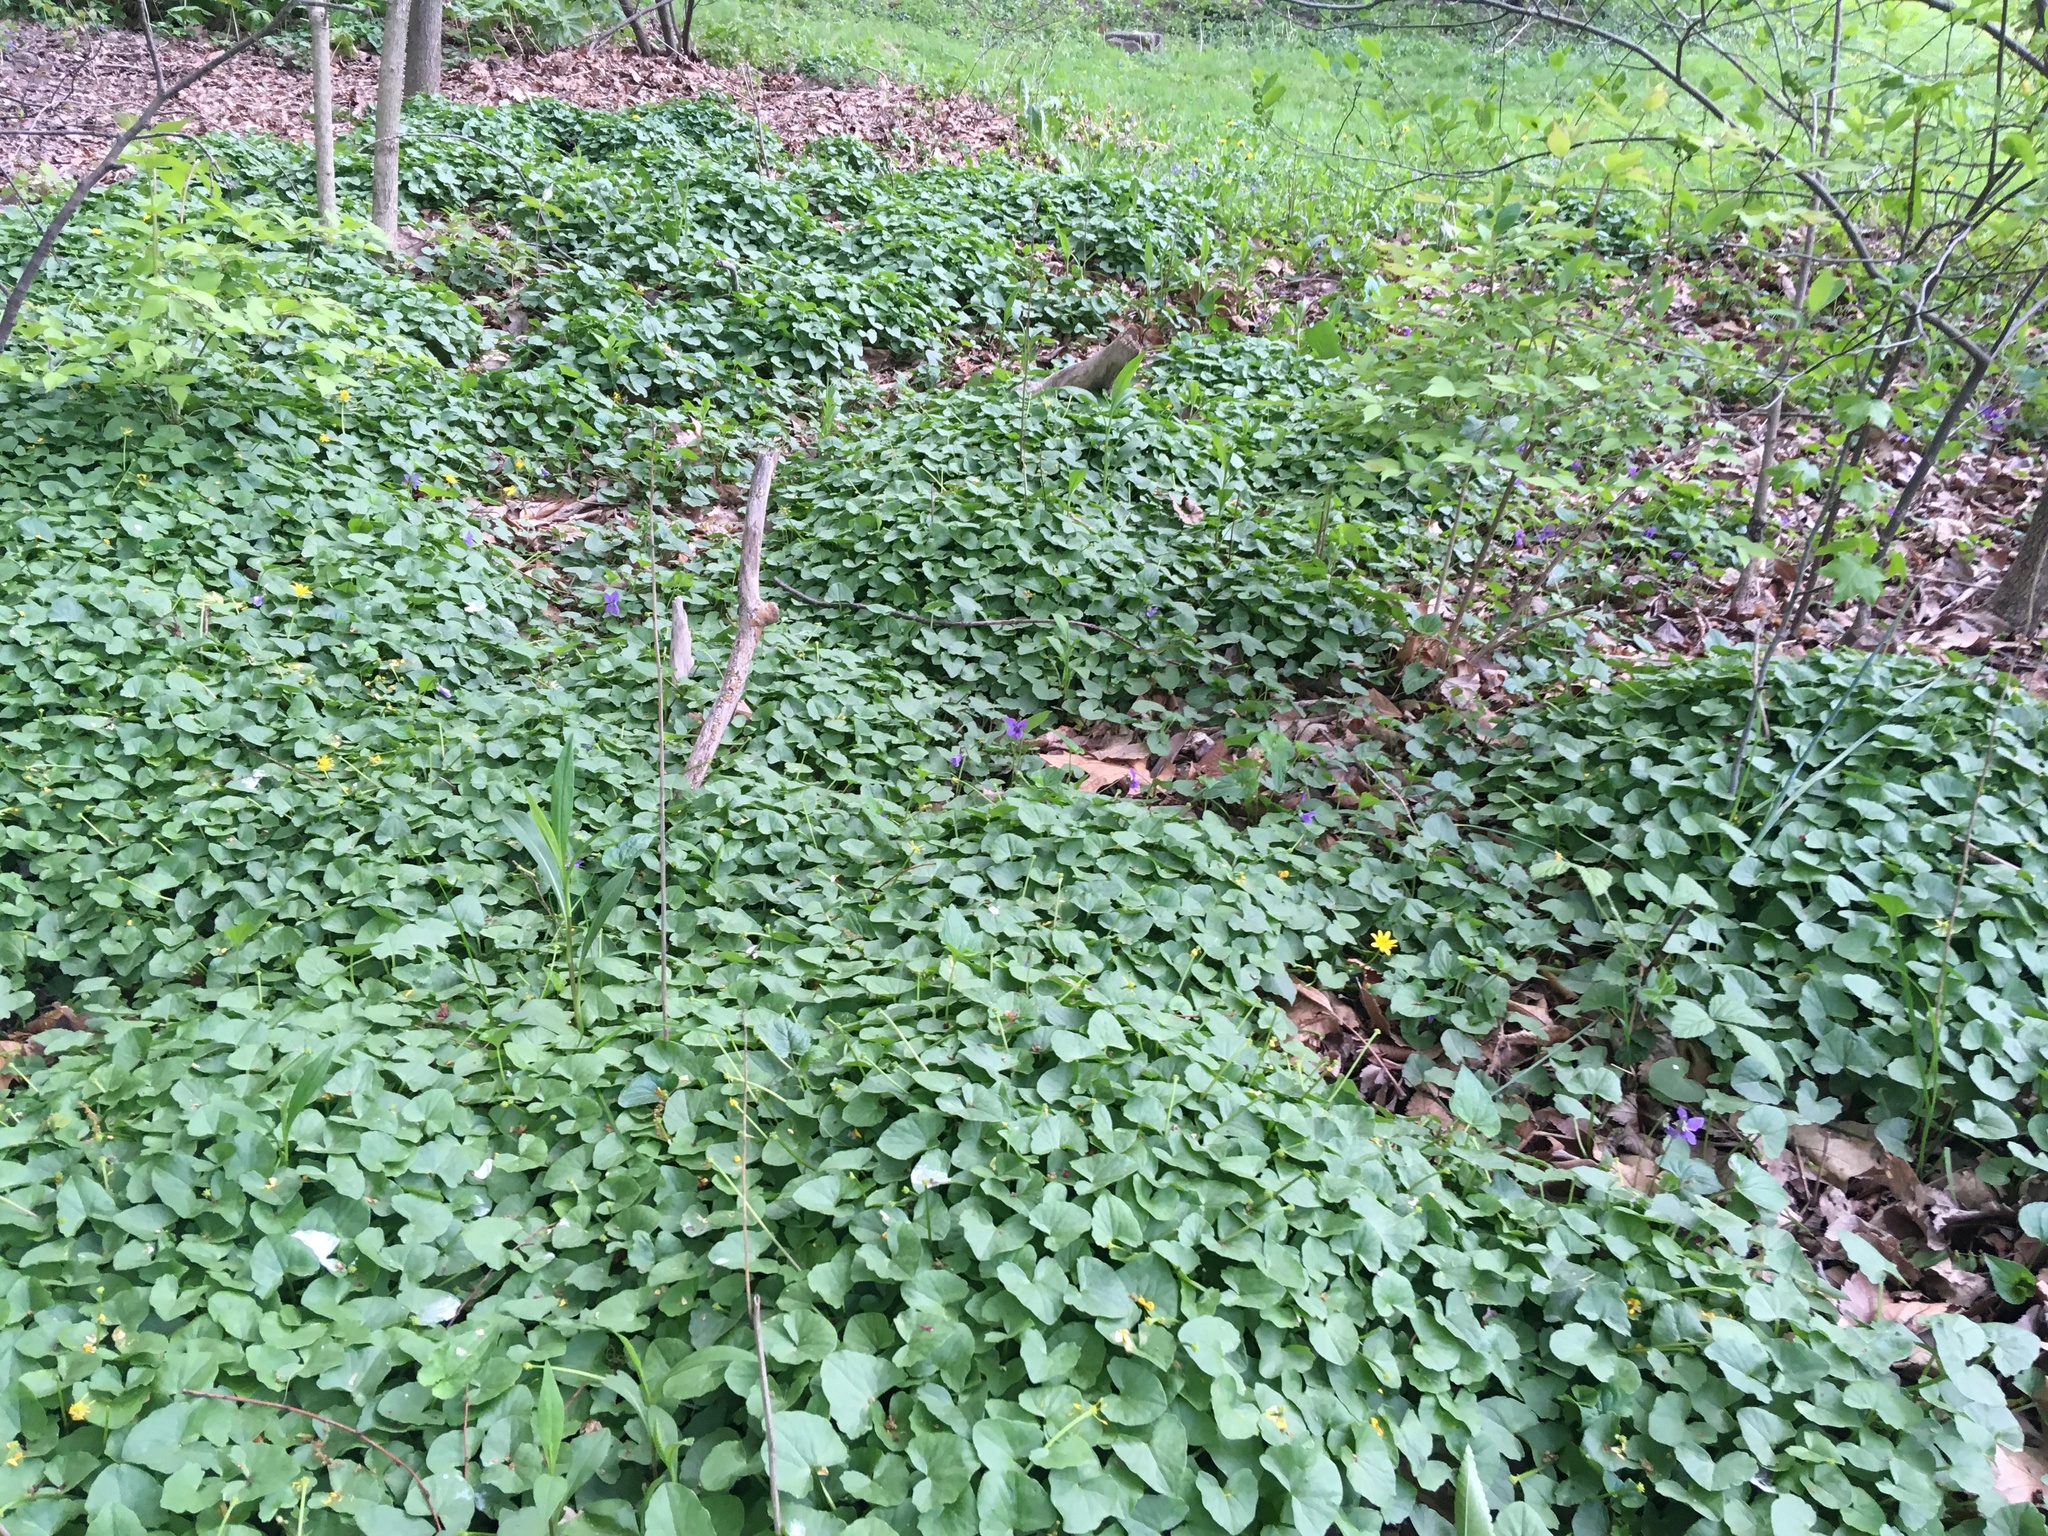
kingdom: Plantae
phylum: Tracheophyta
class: Magnoliopsida
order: Ranunculales
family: Ranunculaceae
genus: Ficaria
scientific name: Ficaria verna
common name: Lesser celandine
